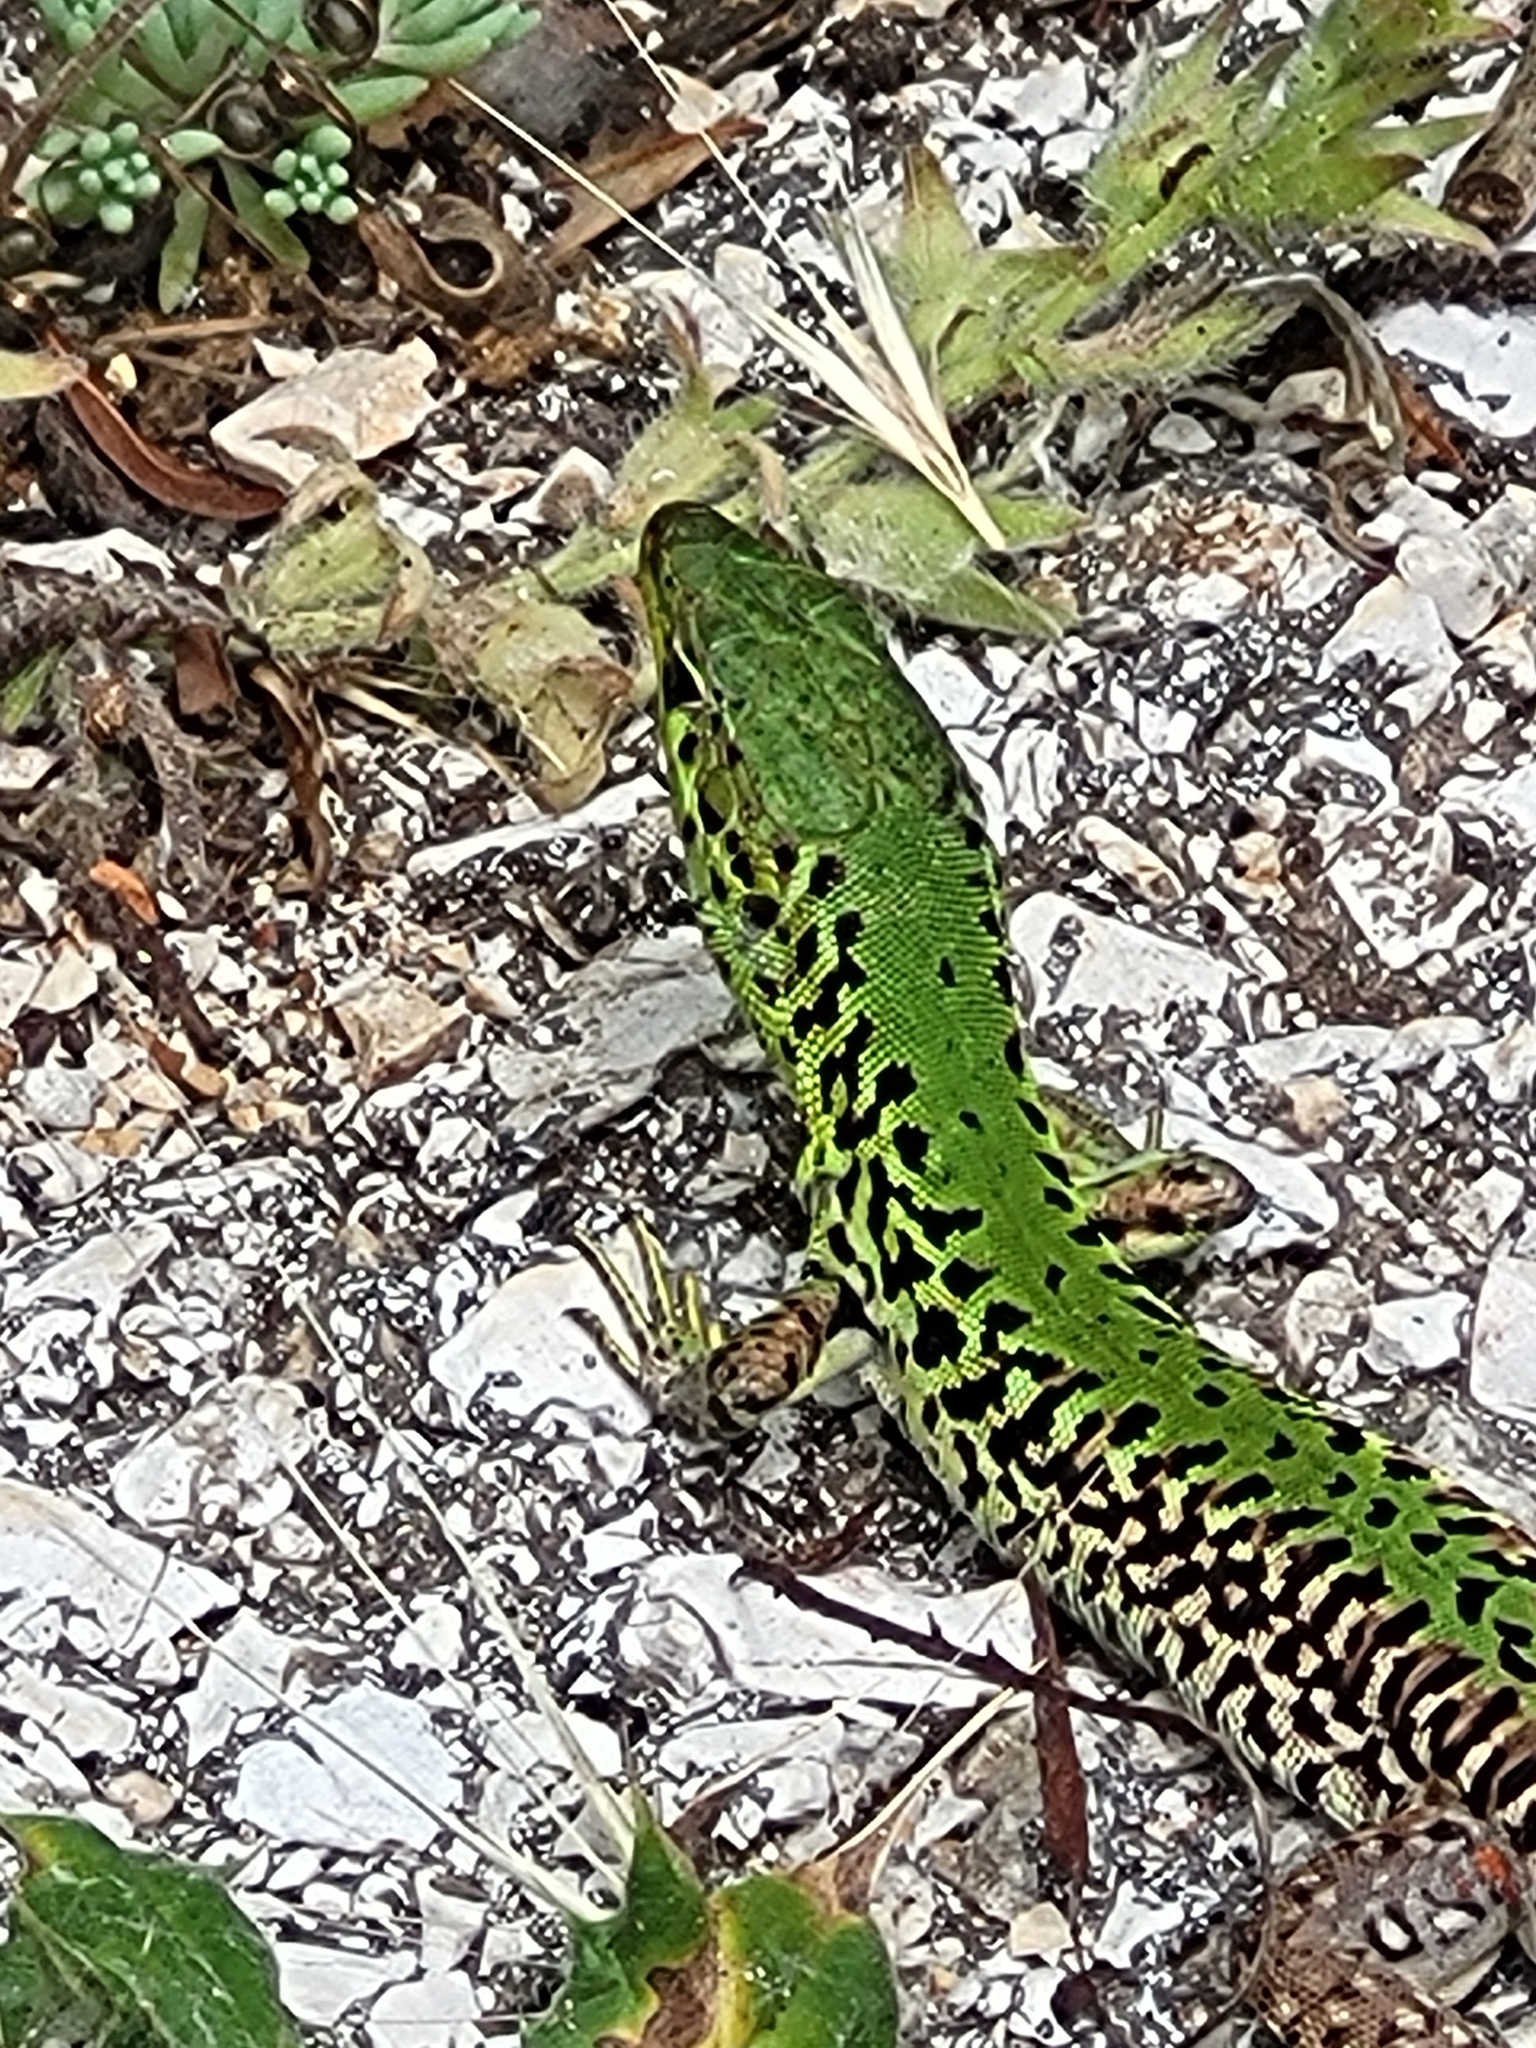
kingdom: Animalia
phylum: Chordata
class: Squamata
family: Lacertidae
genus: Podarcis
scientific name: Podarcis ionicus
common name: Ionian wall lizard
